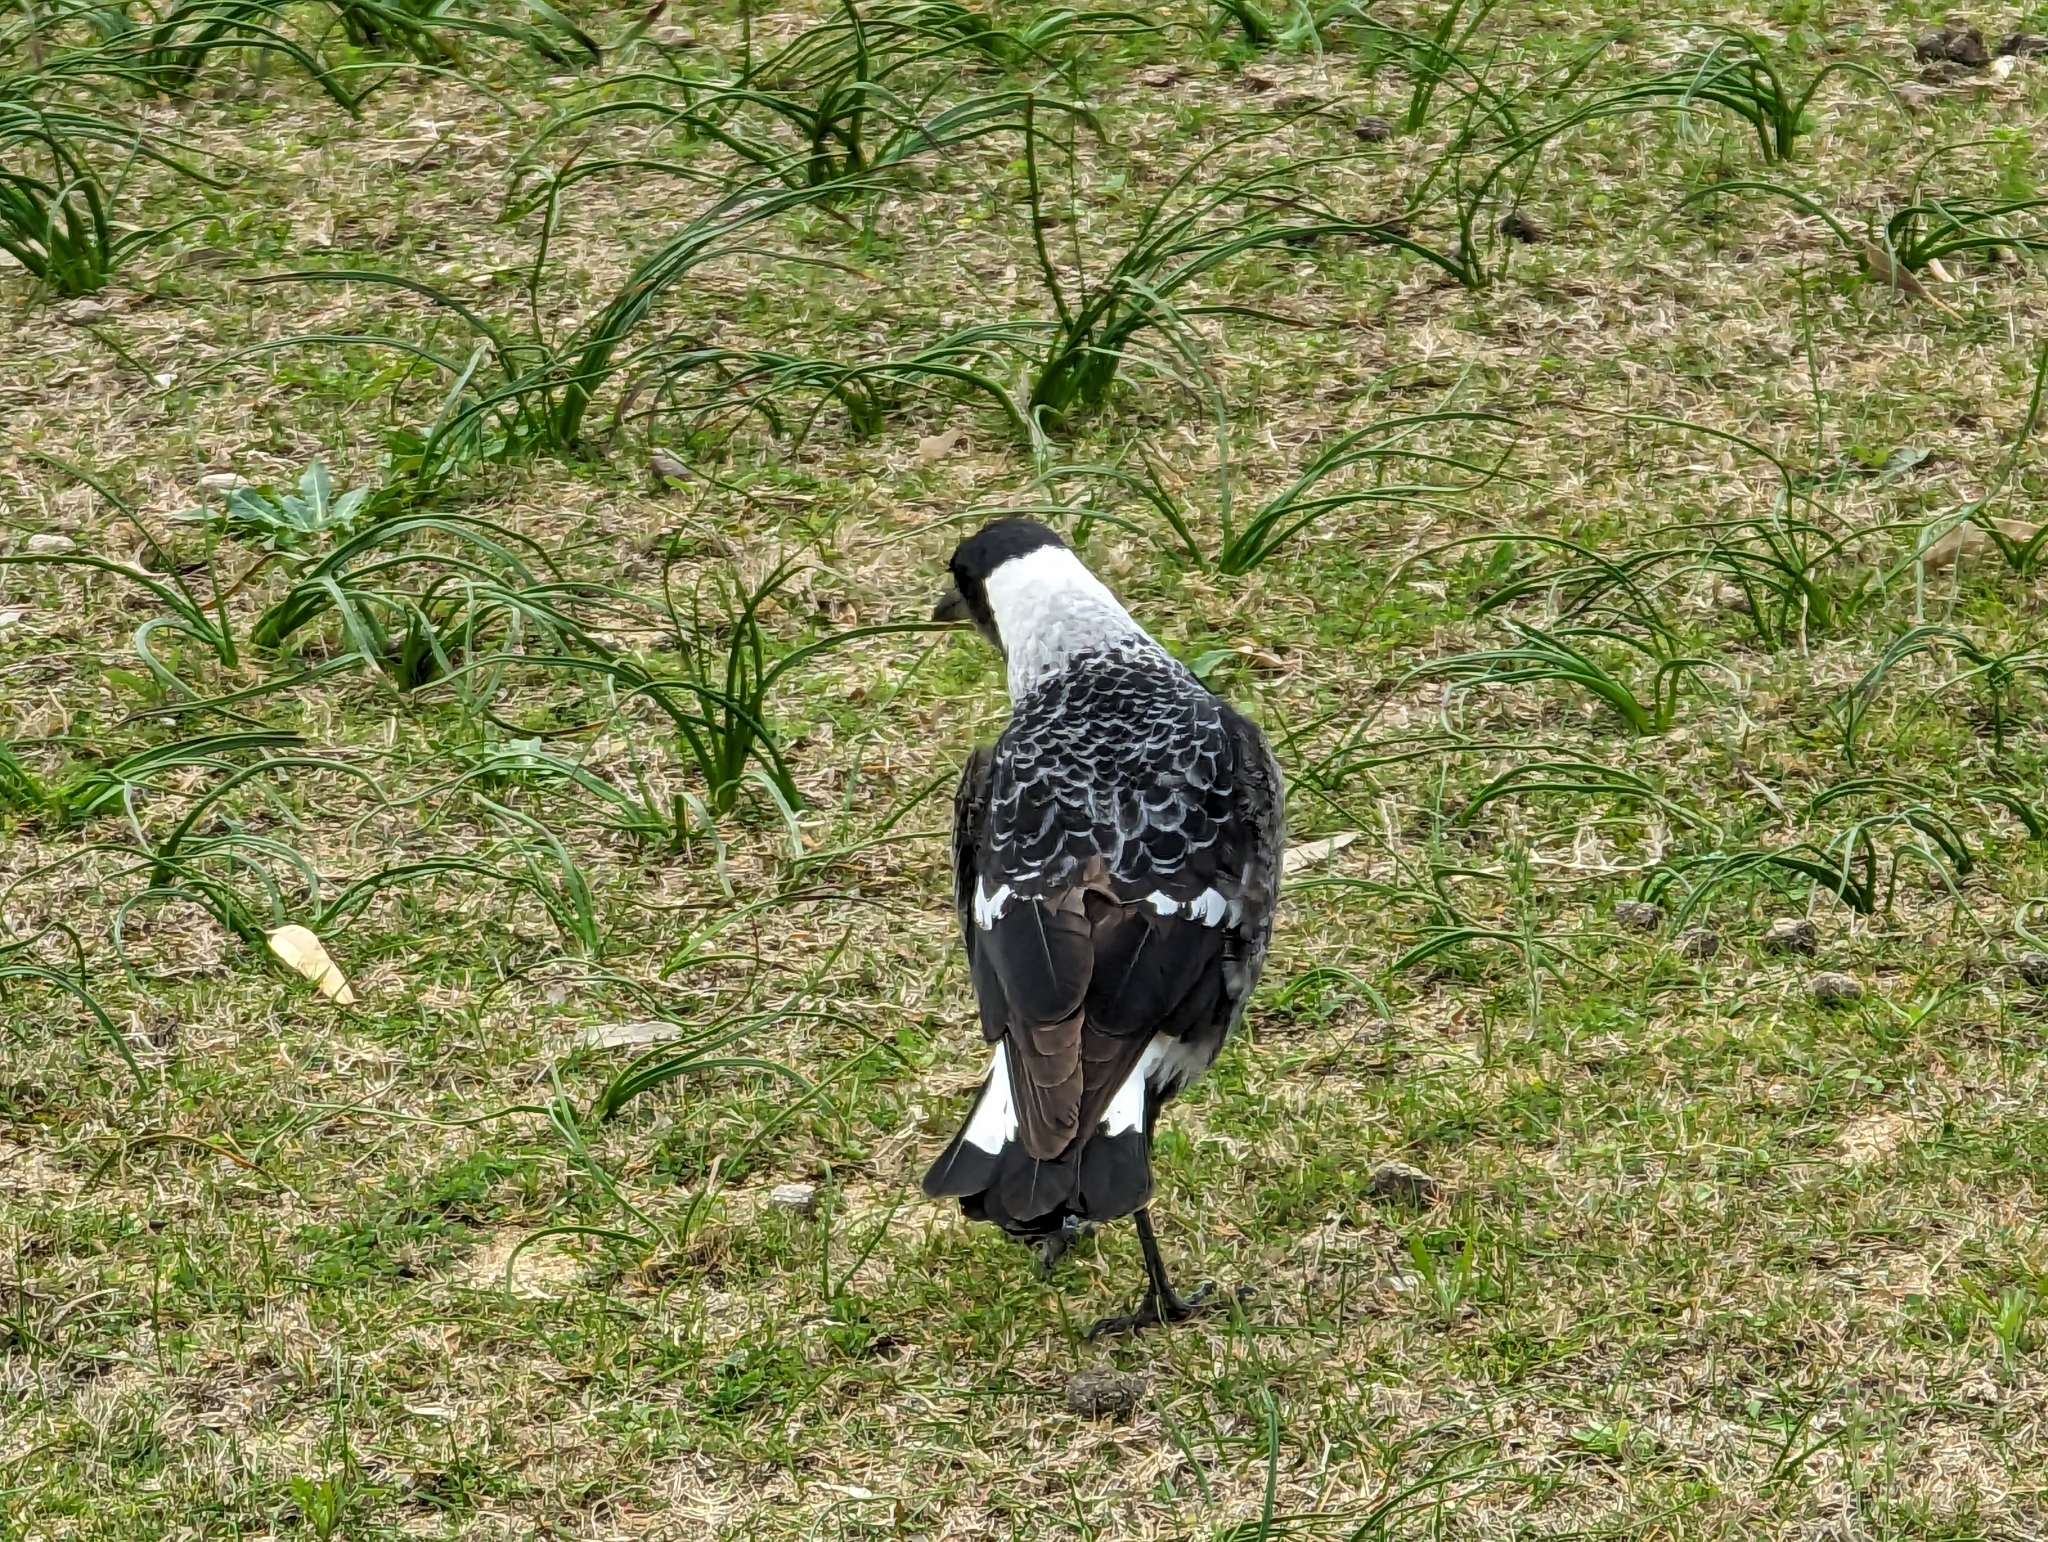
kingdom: Animalia
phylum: Chordata
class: Aves
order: Passeriformes
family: Cracticidae
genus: Gymnorhina
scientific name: Gymnorhina tibicen
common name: Australian magpie
